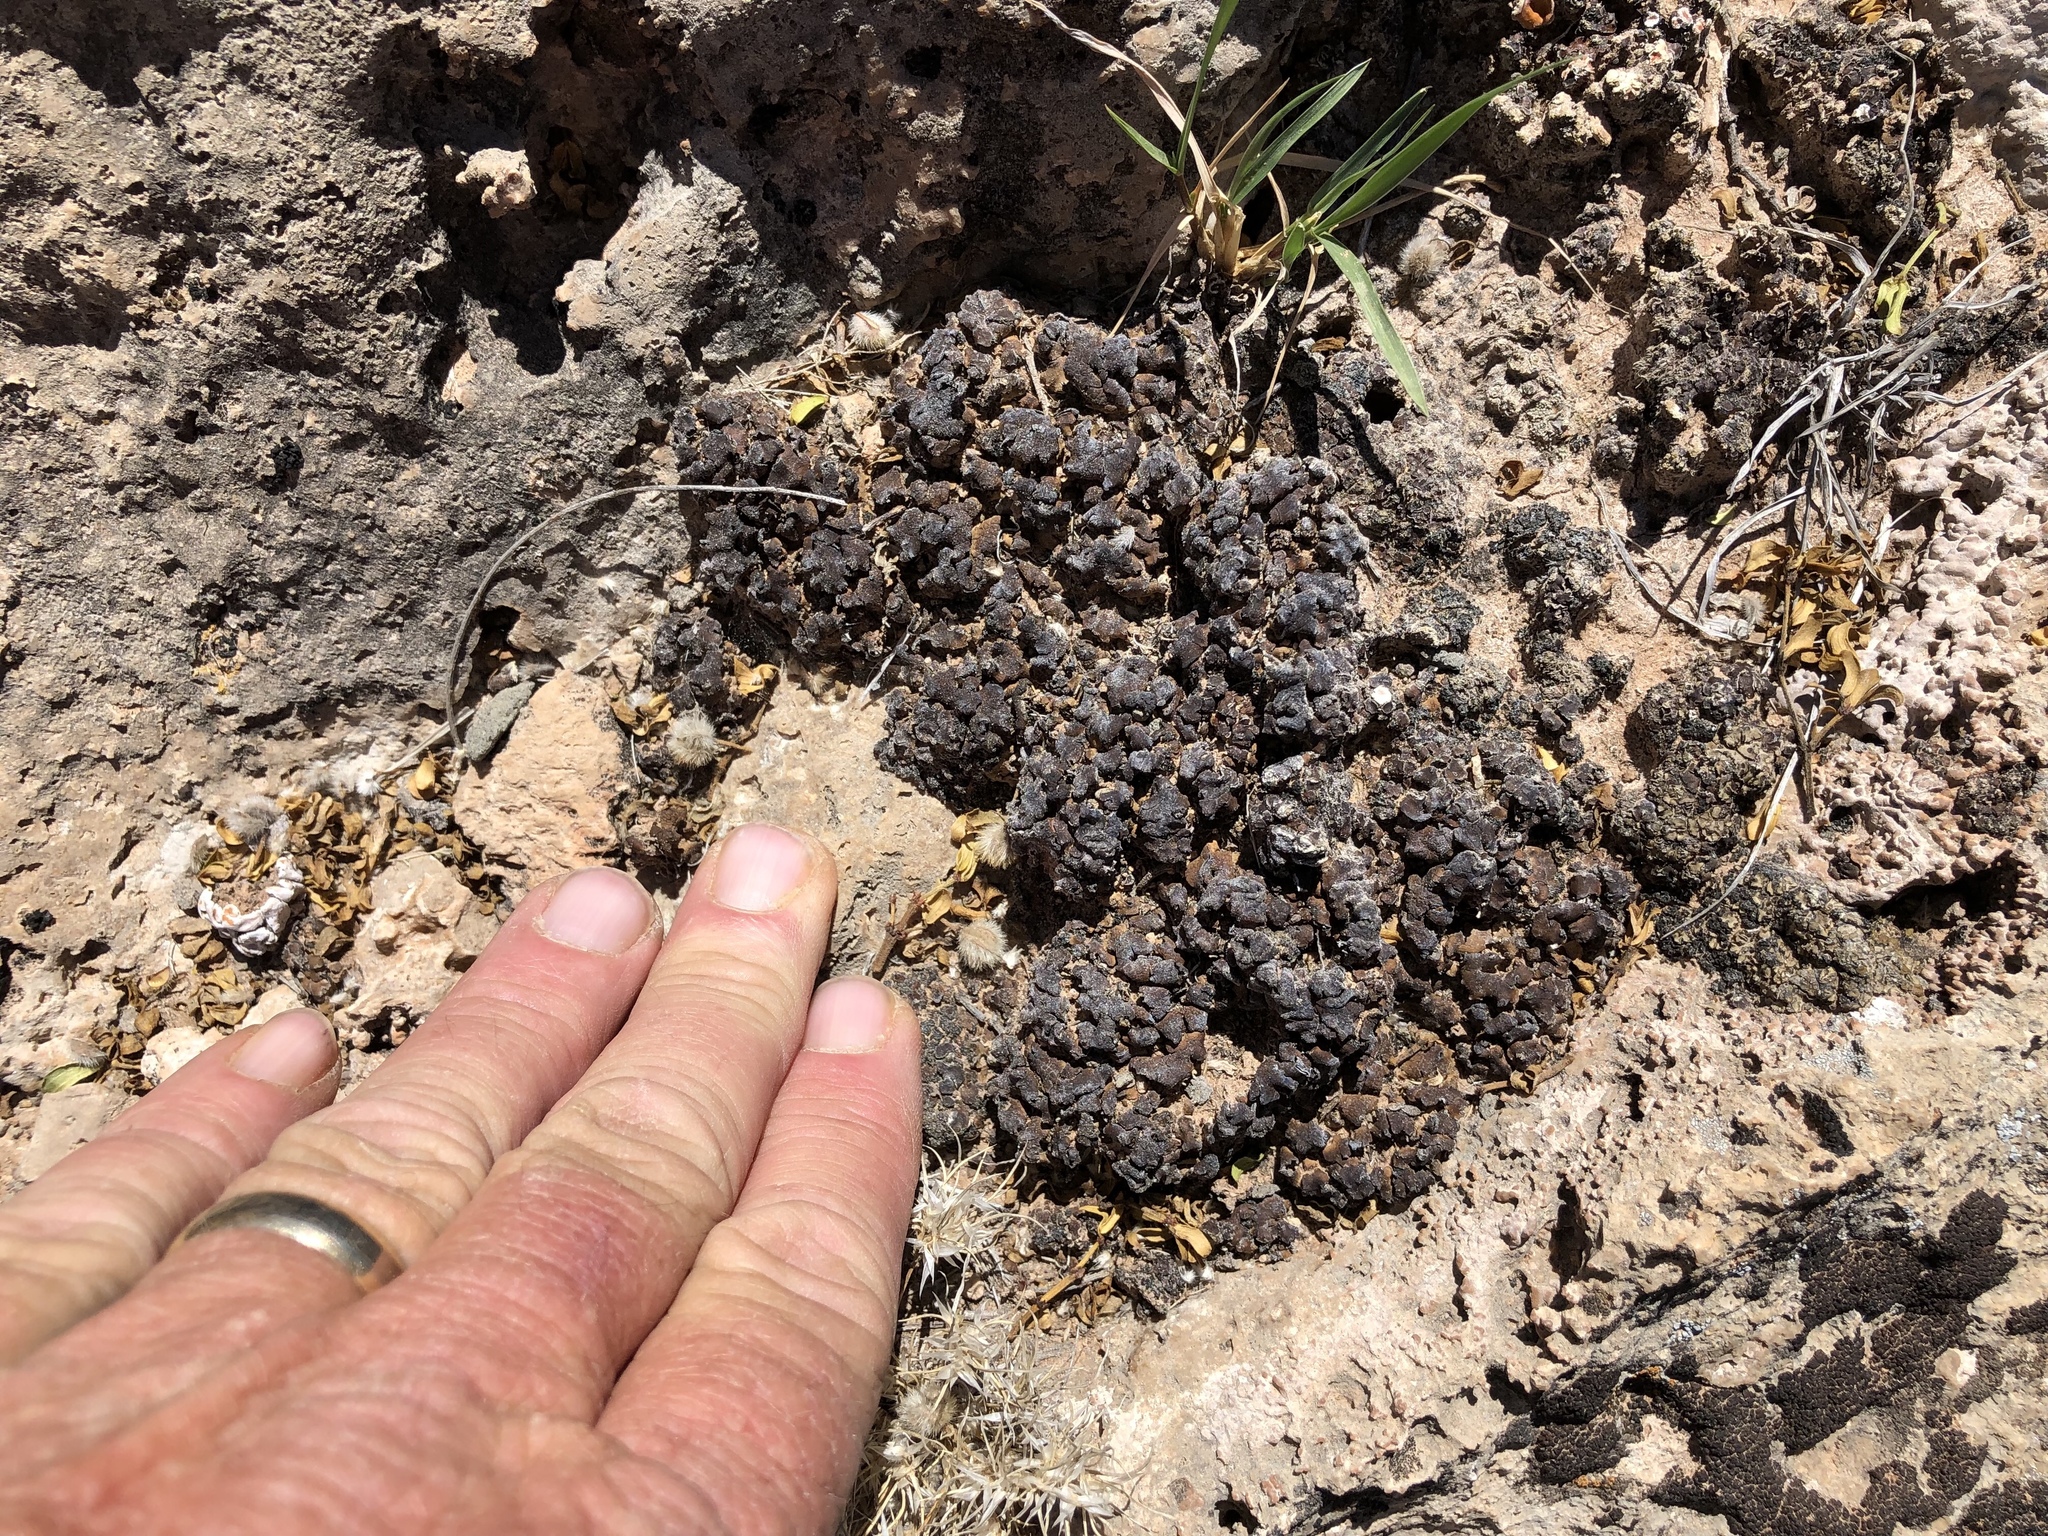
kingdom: Fungi
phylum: Ascomycota
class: Eurotiomycetes
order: Verrucariales
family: Verrucariaceae
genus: Heteroplacidium
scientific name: Heteroplacidium compactum
